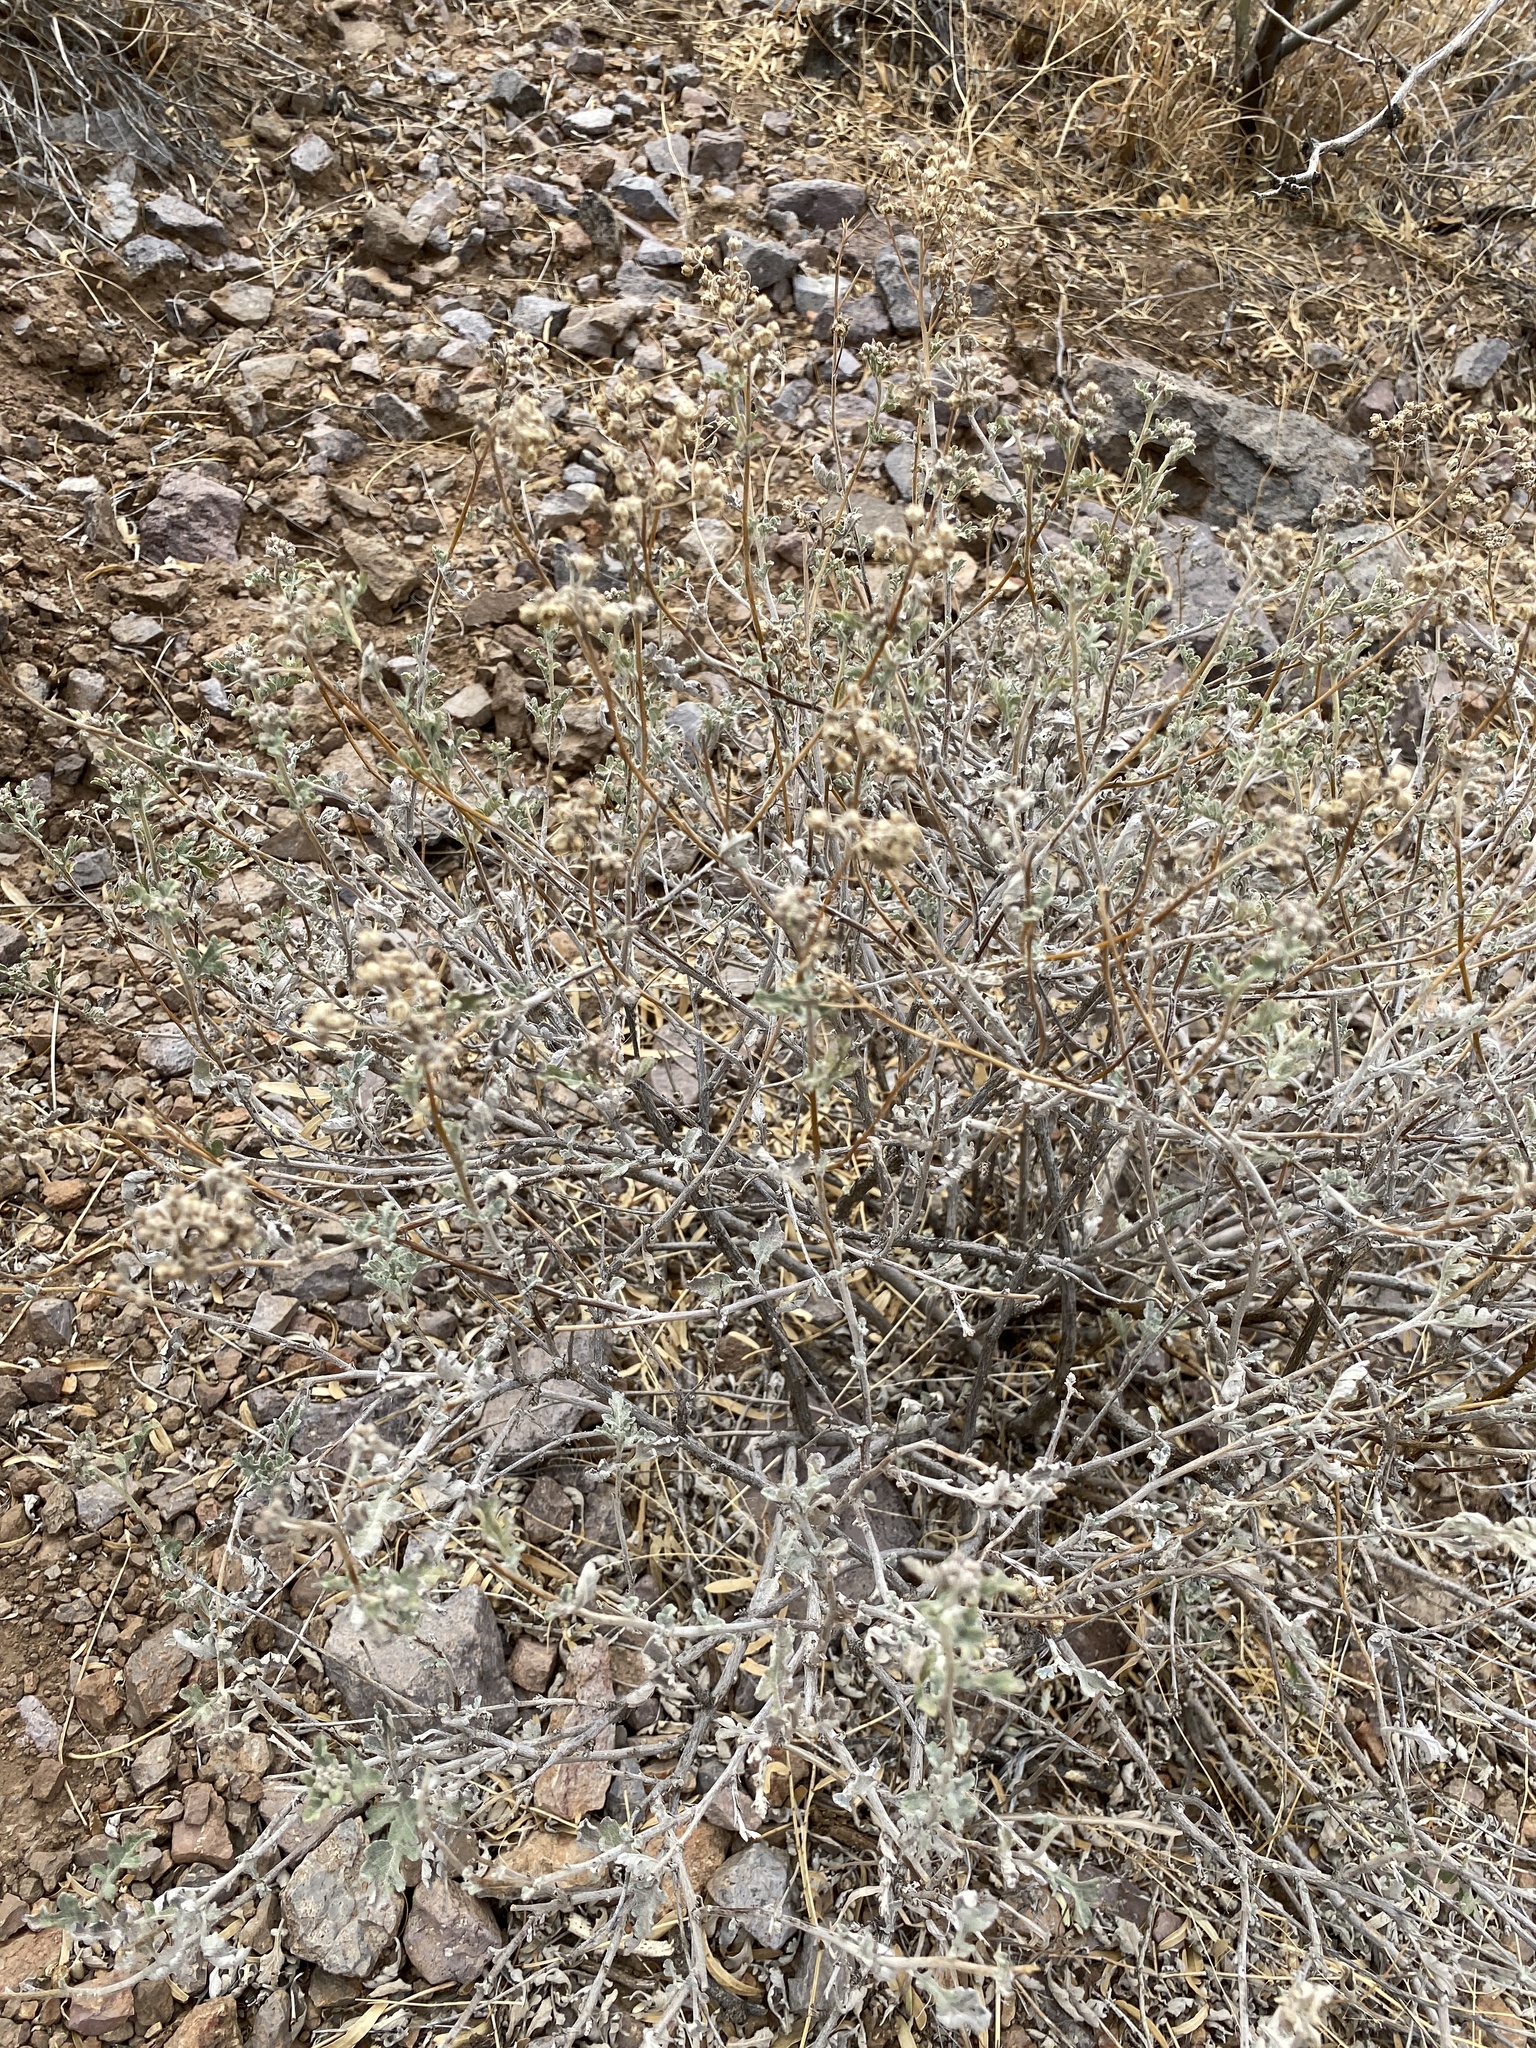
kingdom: Plantae
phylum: Tracheophyta
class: Magnoliopsida
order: Asterales
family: Asteraceae
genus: Parthenium
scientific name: Parthenium incanum
